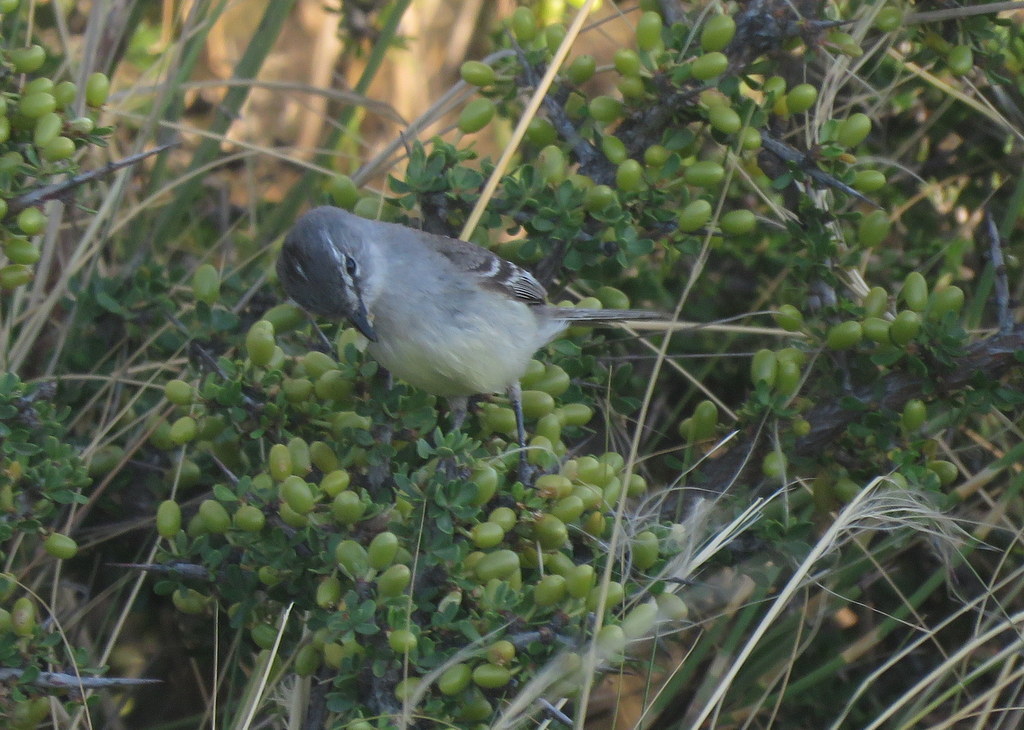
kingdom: Animalia
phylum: Chordata
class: Aves
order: Passeriformes
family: Tyrannidae
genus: Serpophaga
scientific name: Serpophaga griseicapilla
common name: Straneck's tyrannulet
